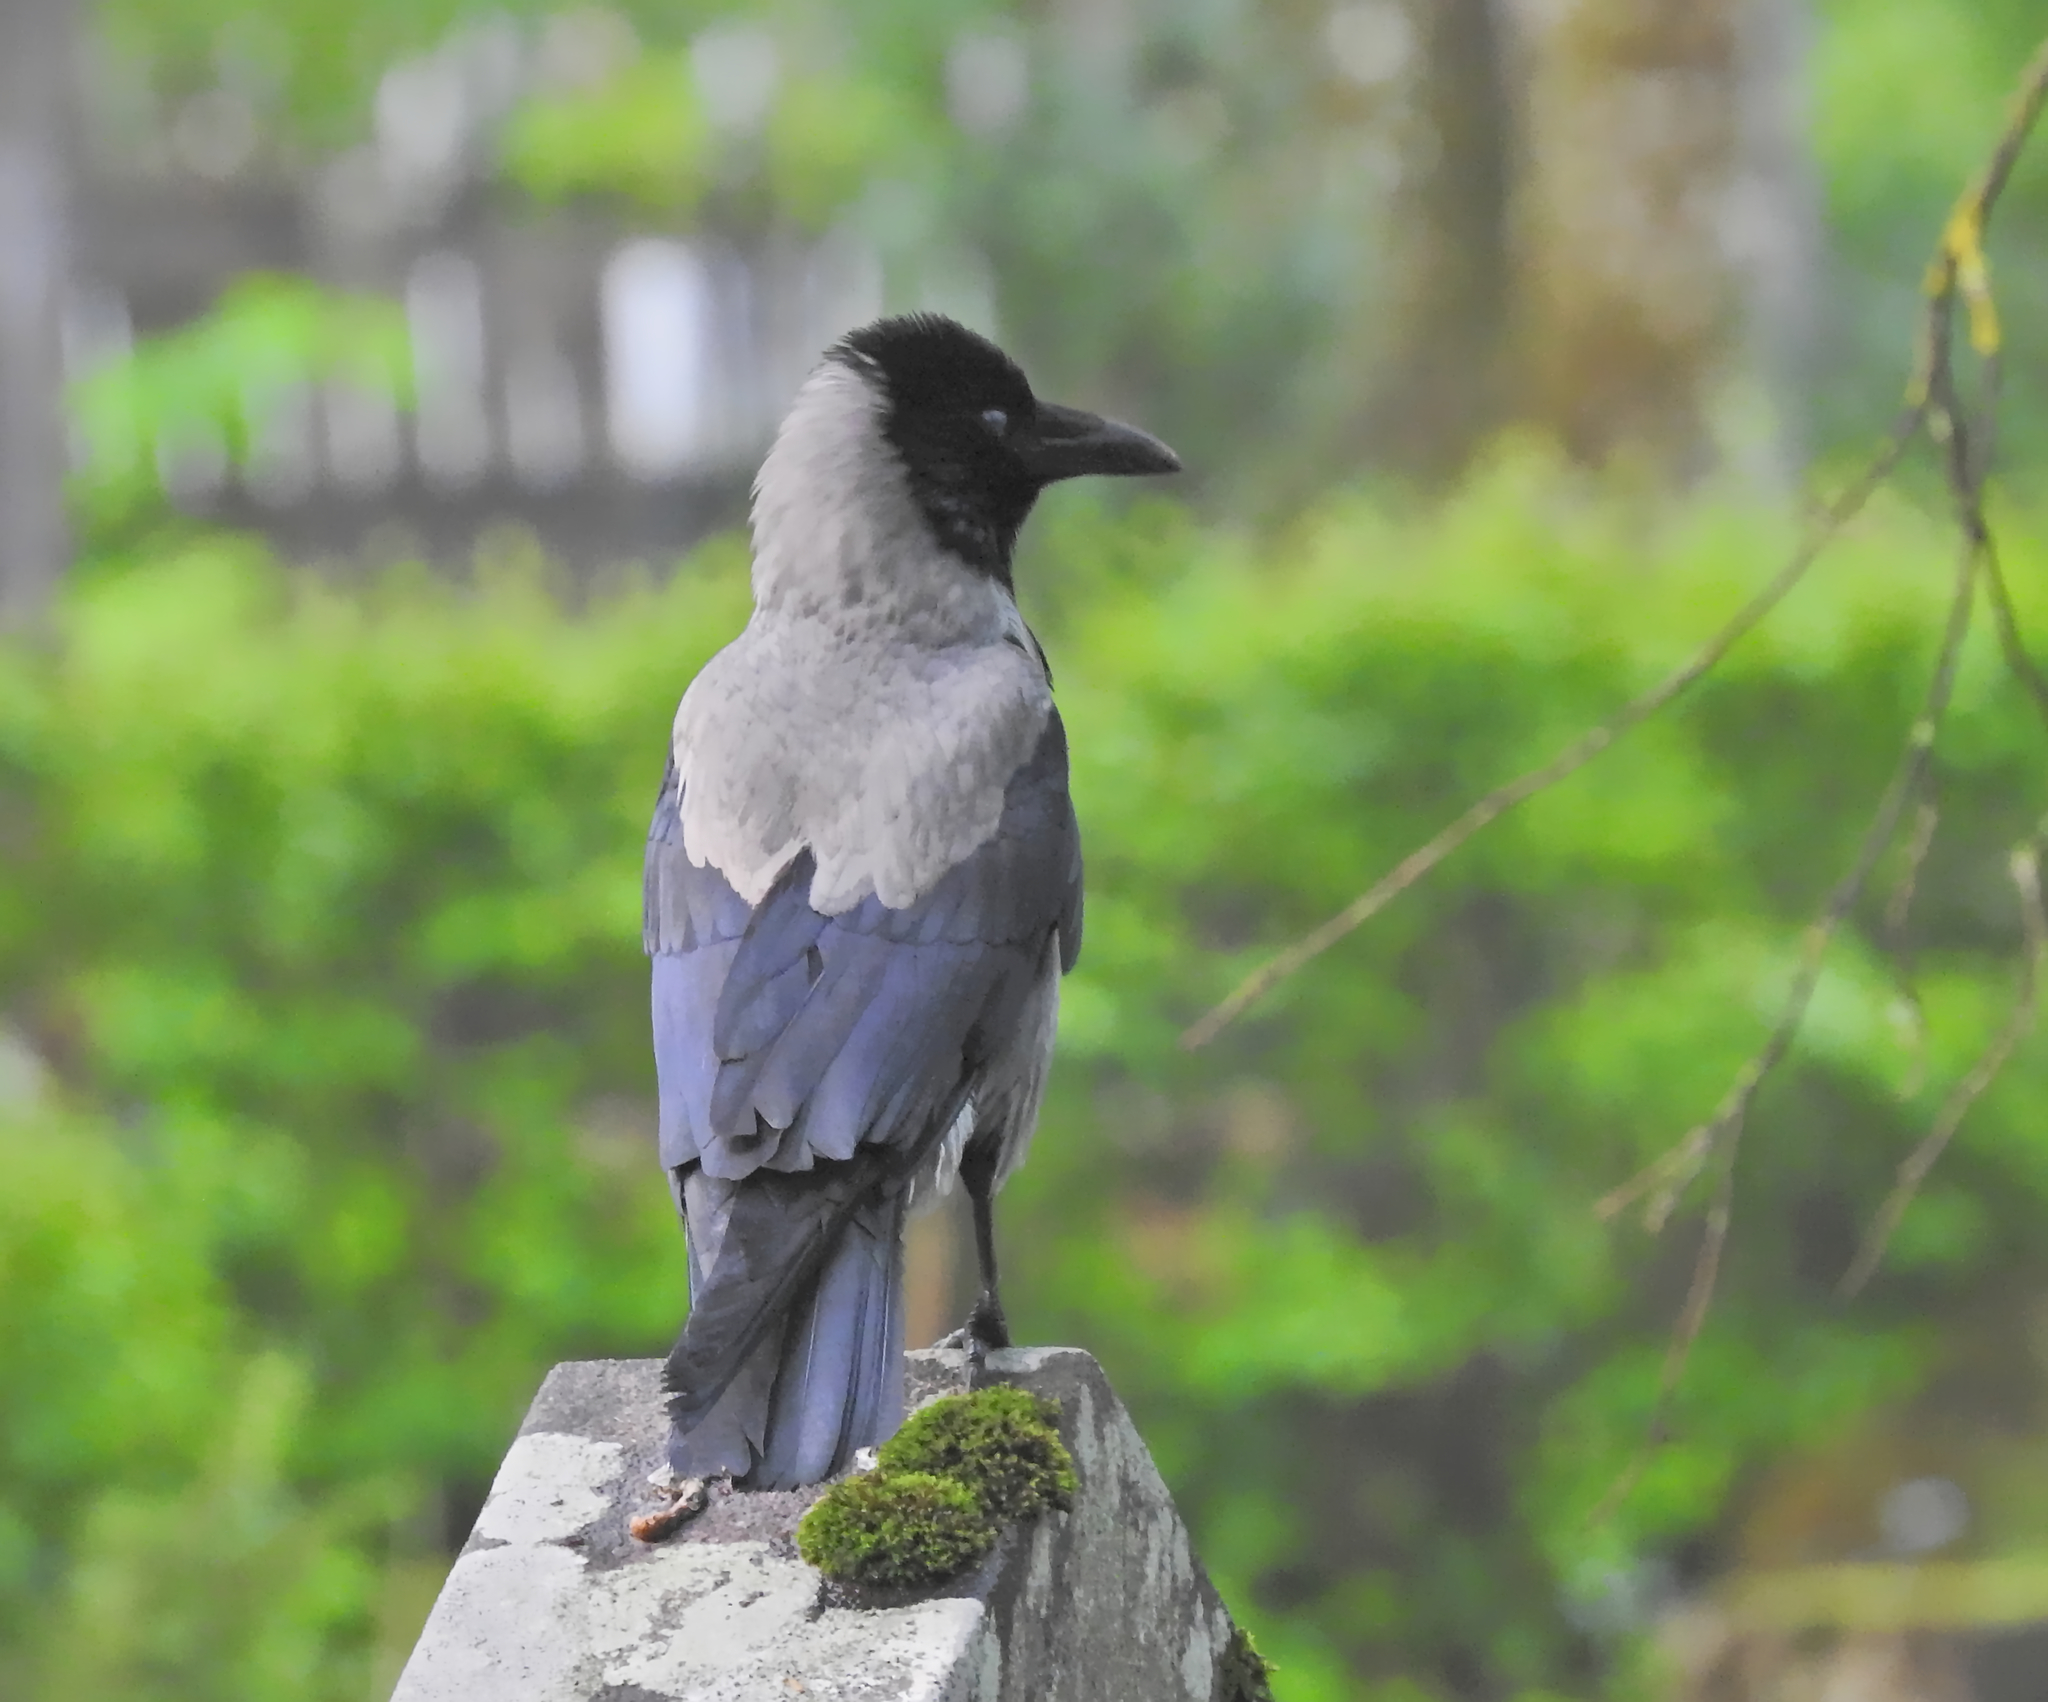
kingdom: Animalia
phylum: Chordata
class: Aves
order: Passeriformes
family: Corvidae
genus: Corvus
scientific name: Corvus cornix
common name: Hooded crow
